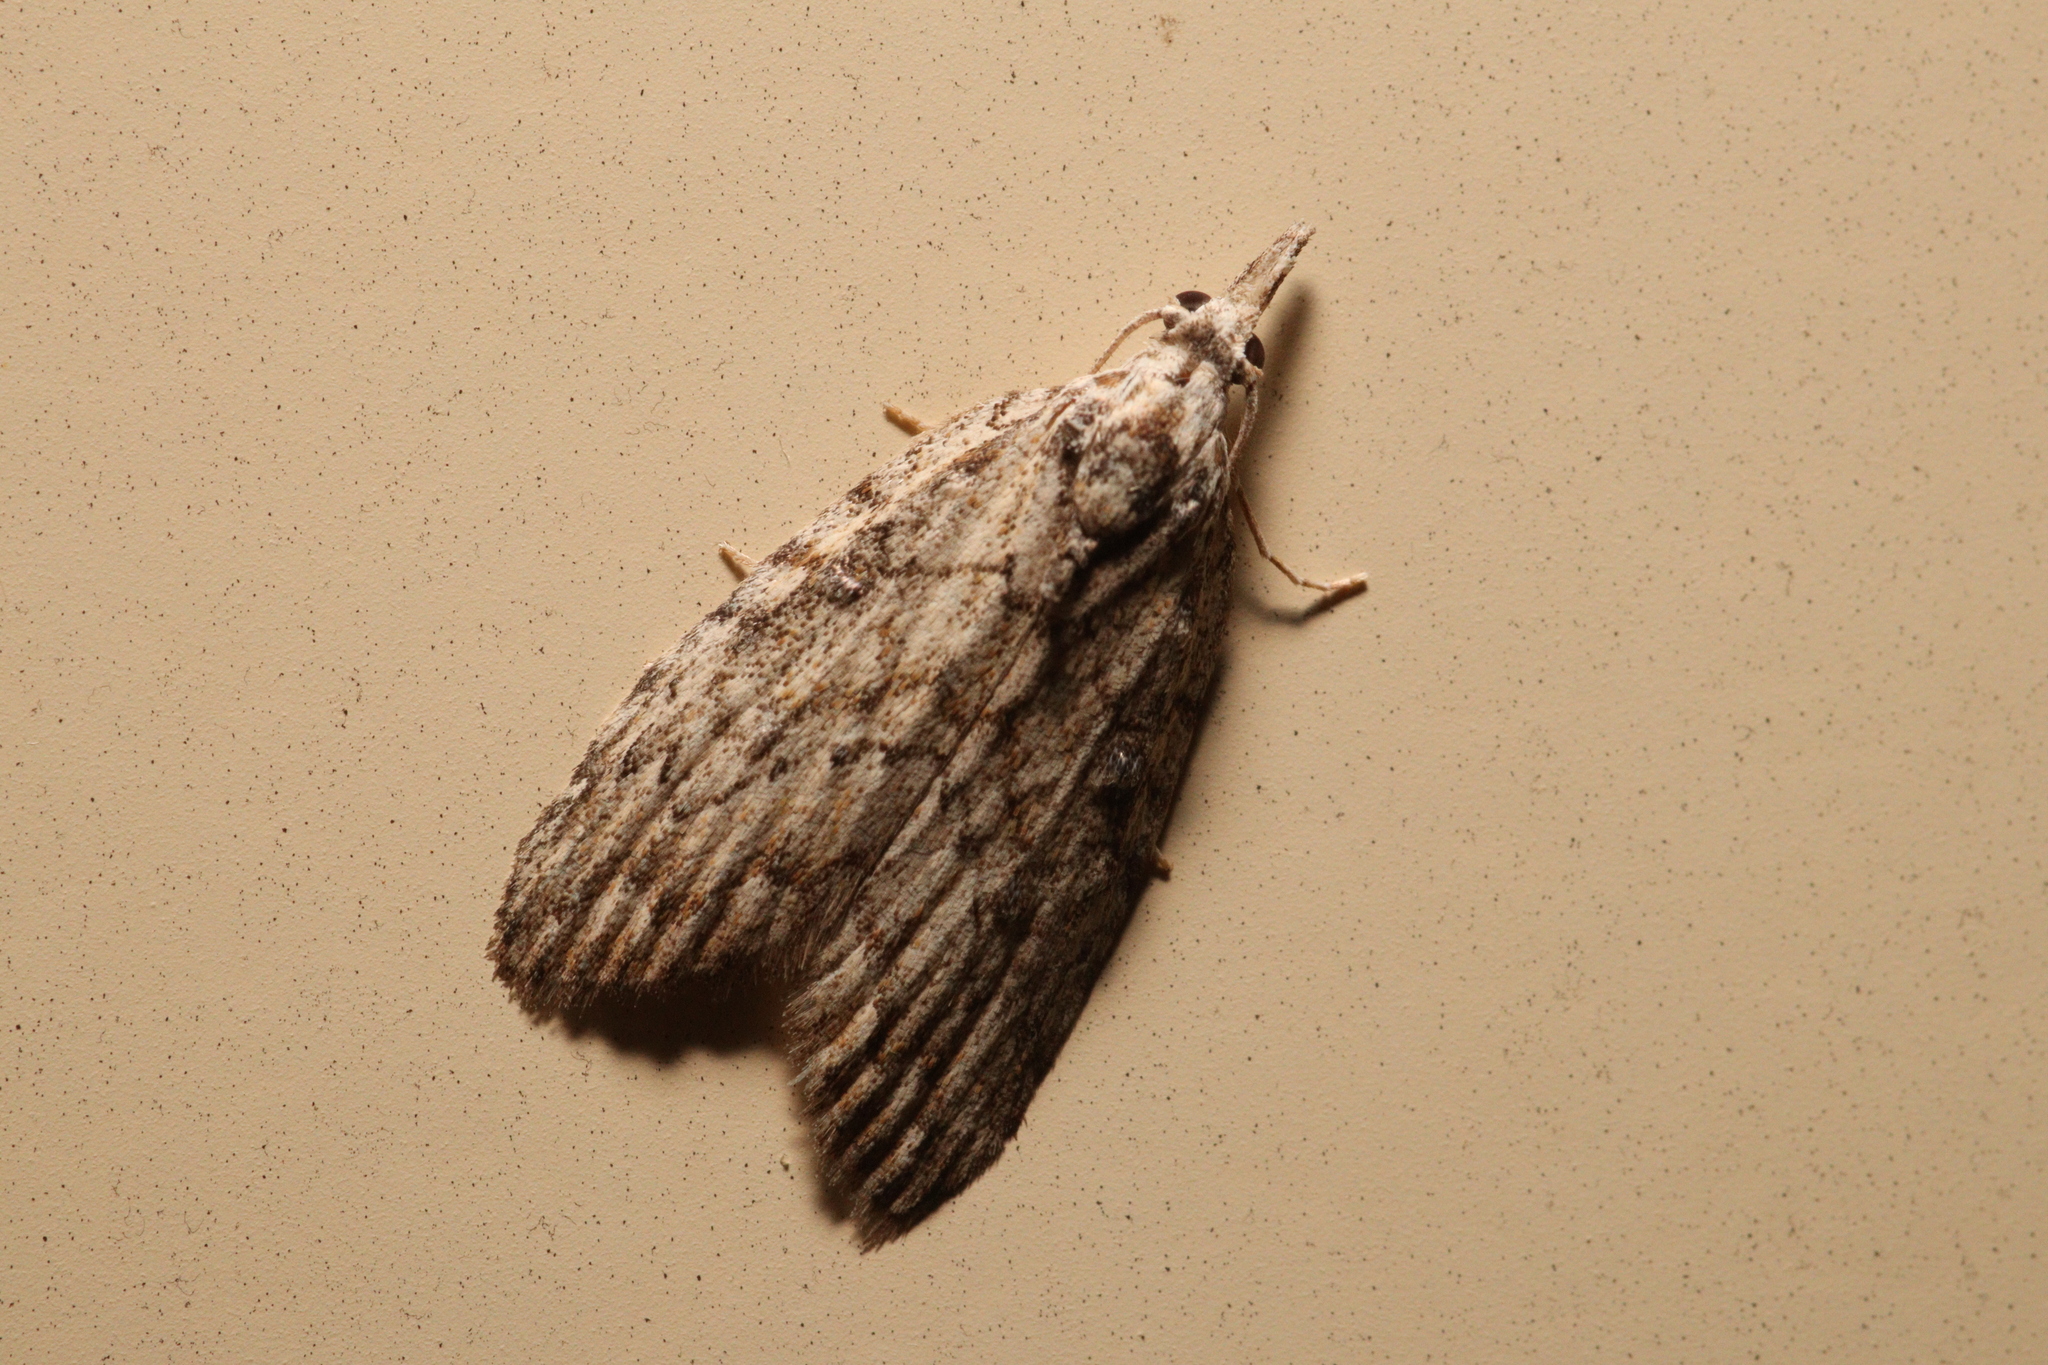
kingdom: Animalia
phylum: Arthropoda
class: Insecta
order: Lepidoptera
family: Nolidae
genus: Nola
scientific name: Nola eurrhyncha
